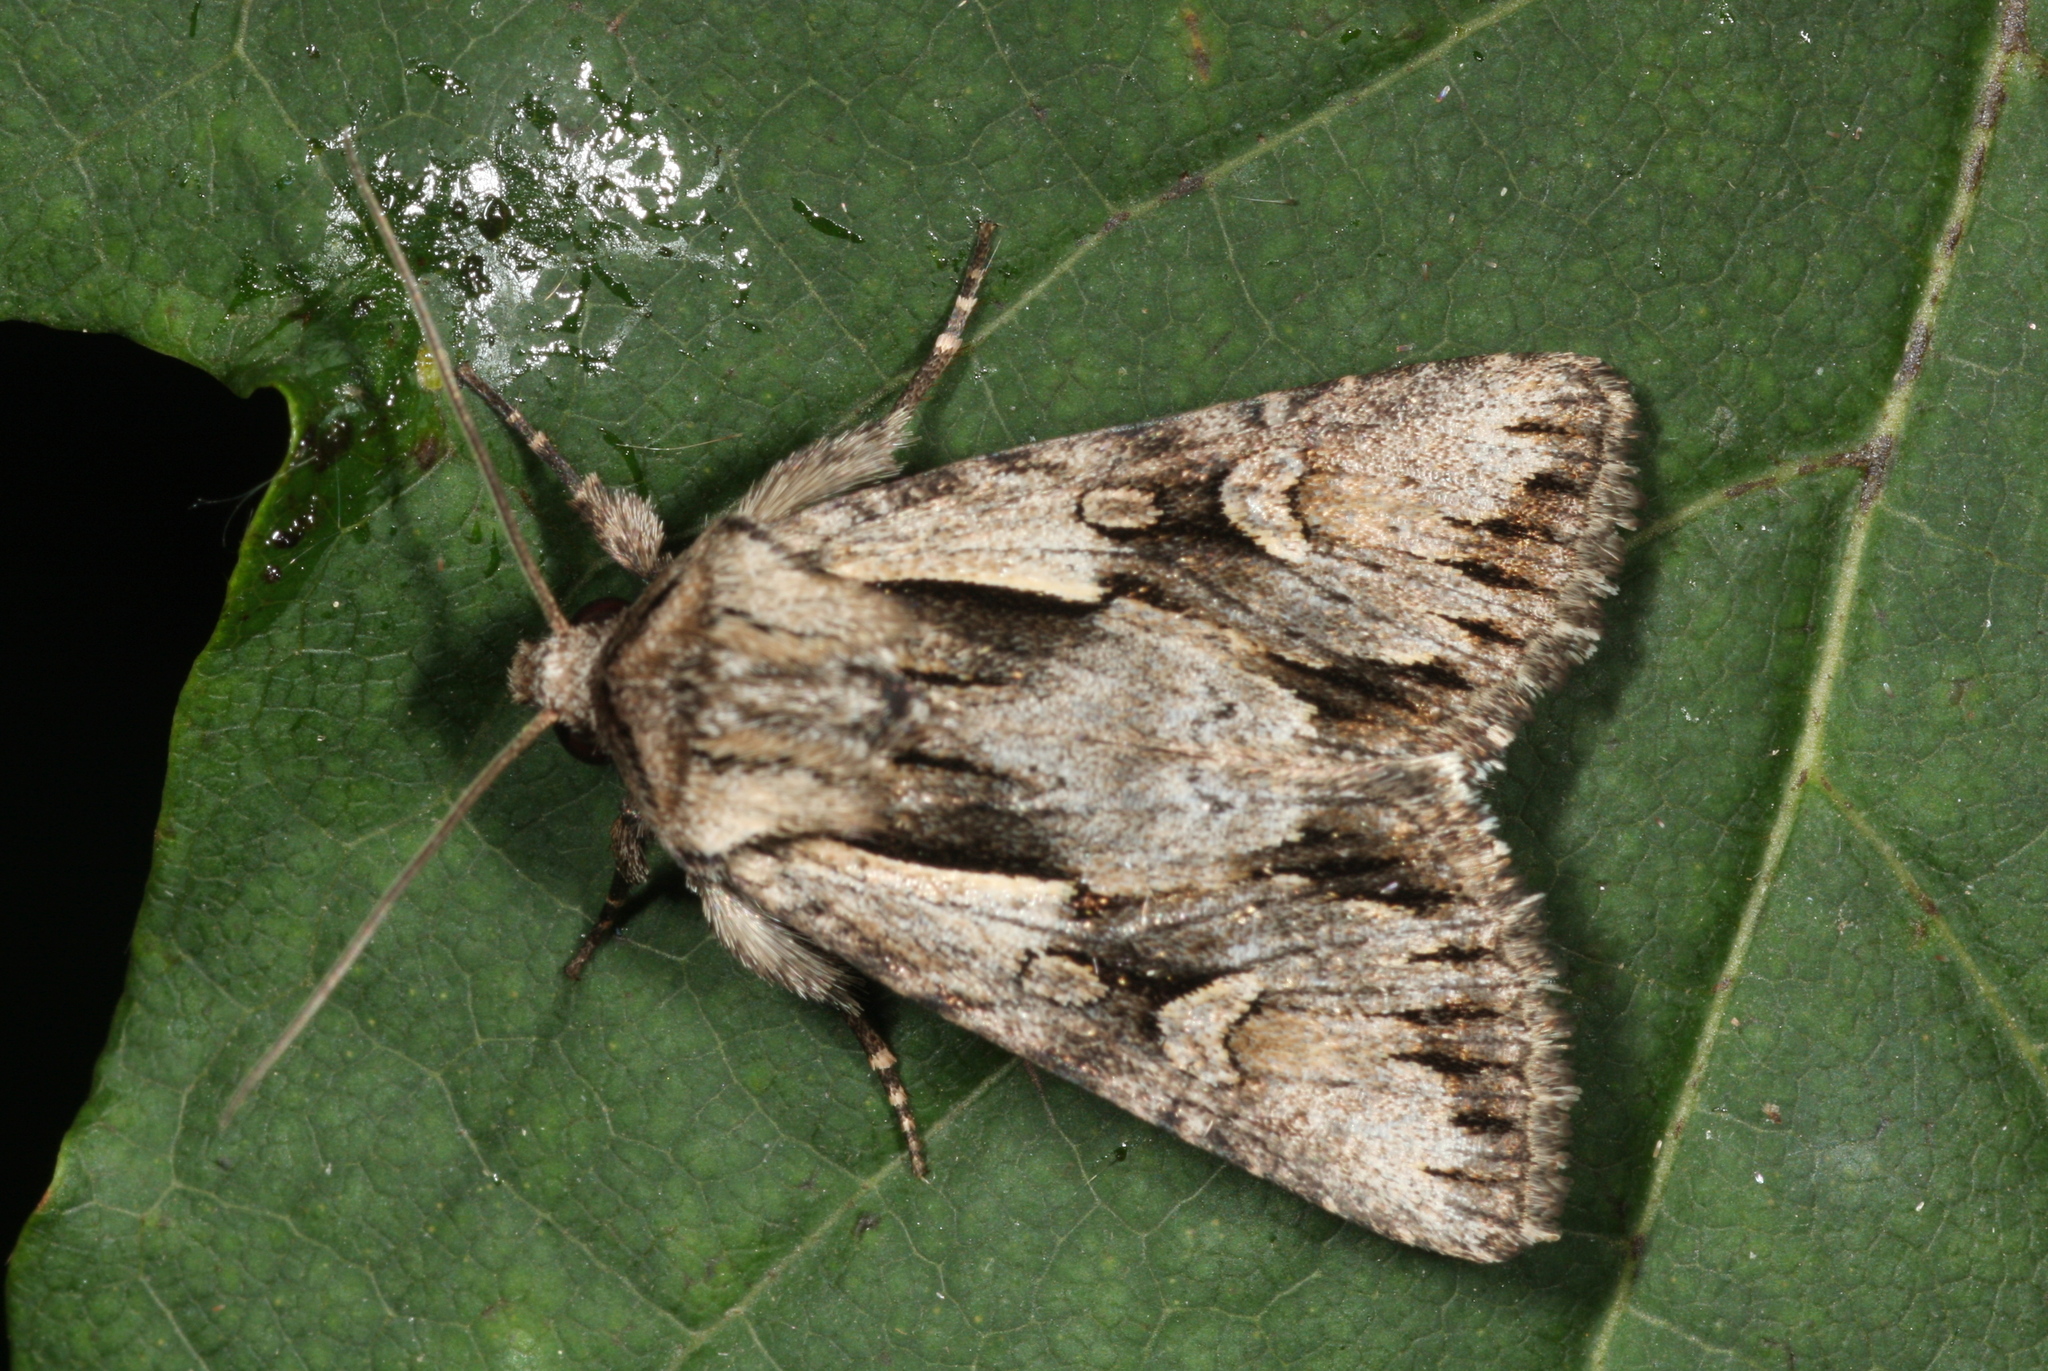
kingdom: Animalia
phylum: Arthropoda
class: Insecta
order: Lepidoptera
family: Noctuidae
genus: Chloantha
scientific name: Chloantha hyperici
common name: Pale-shouldered cloud
